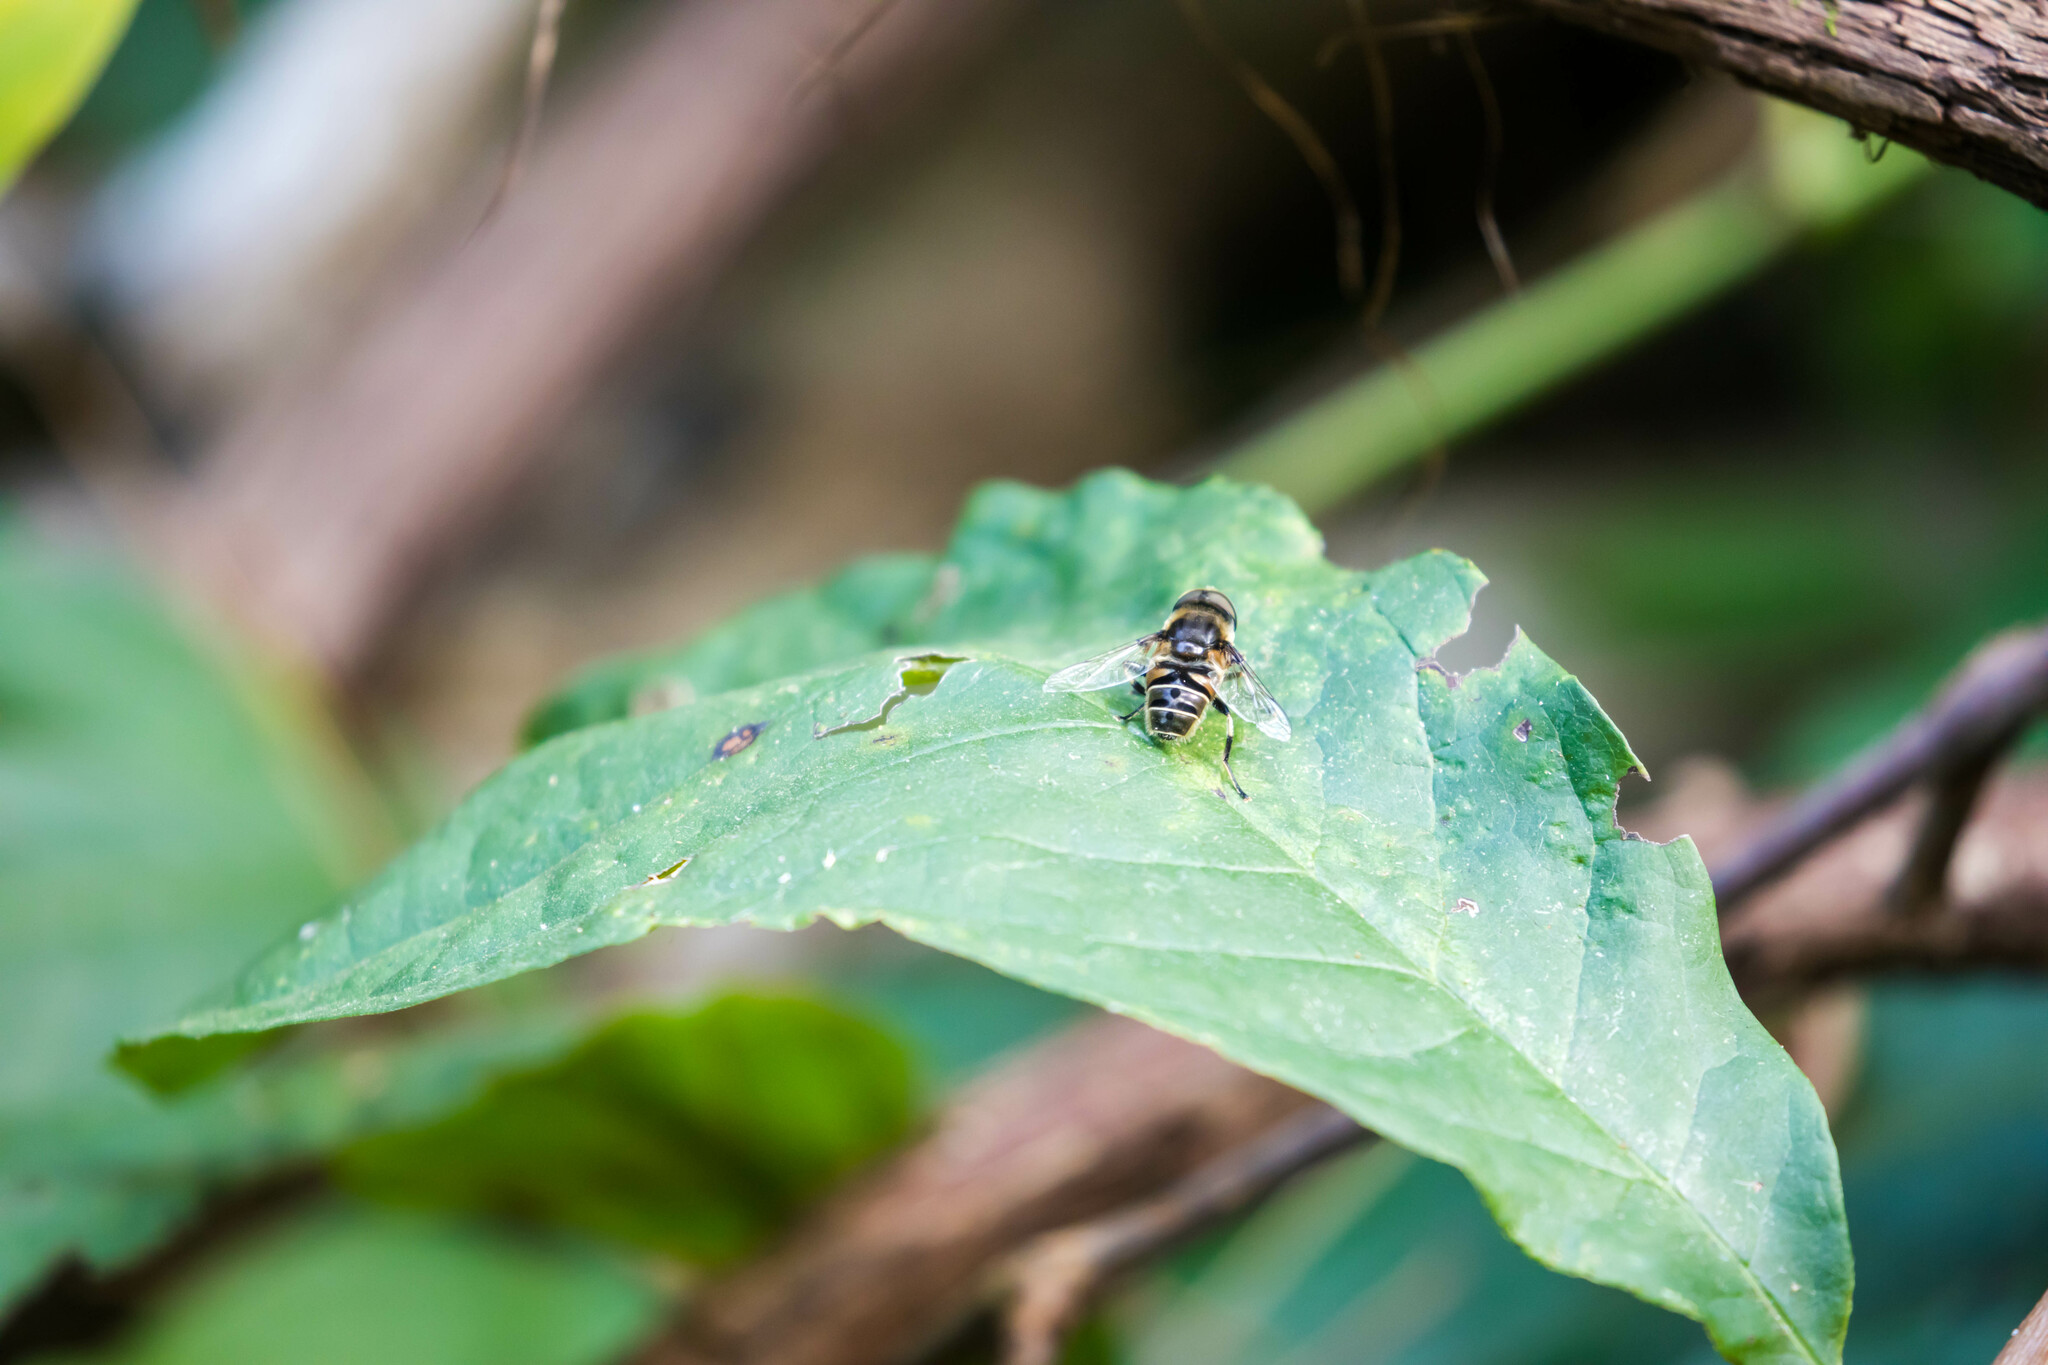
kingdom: Animalia
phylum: Arthropoda
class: Insecta
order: Diptera
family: Syrphidae
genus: Eristalis
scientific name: Eristalis dimidiata
